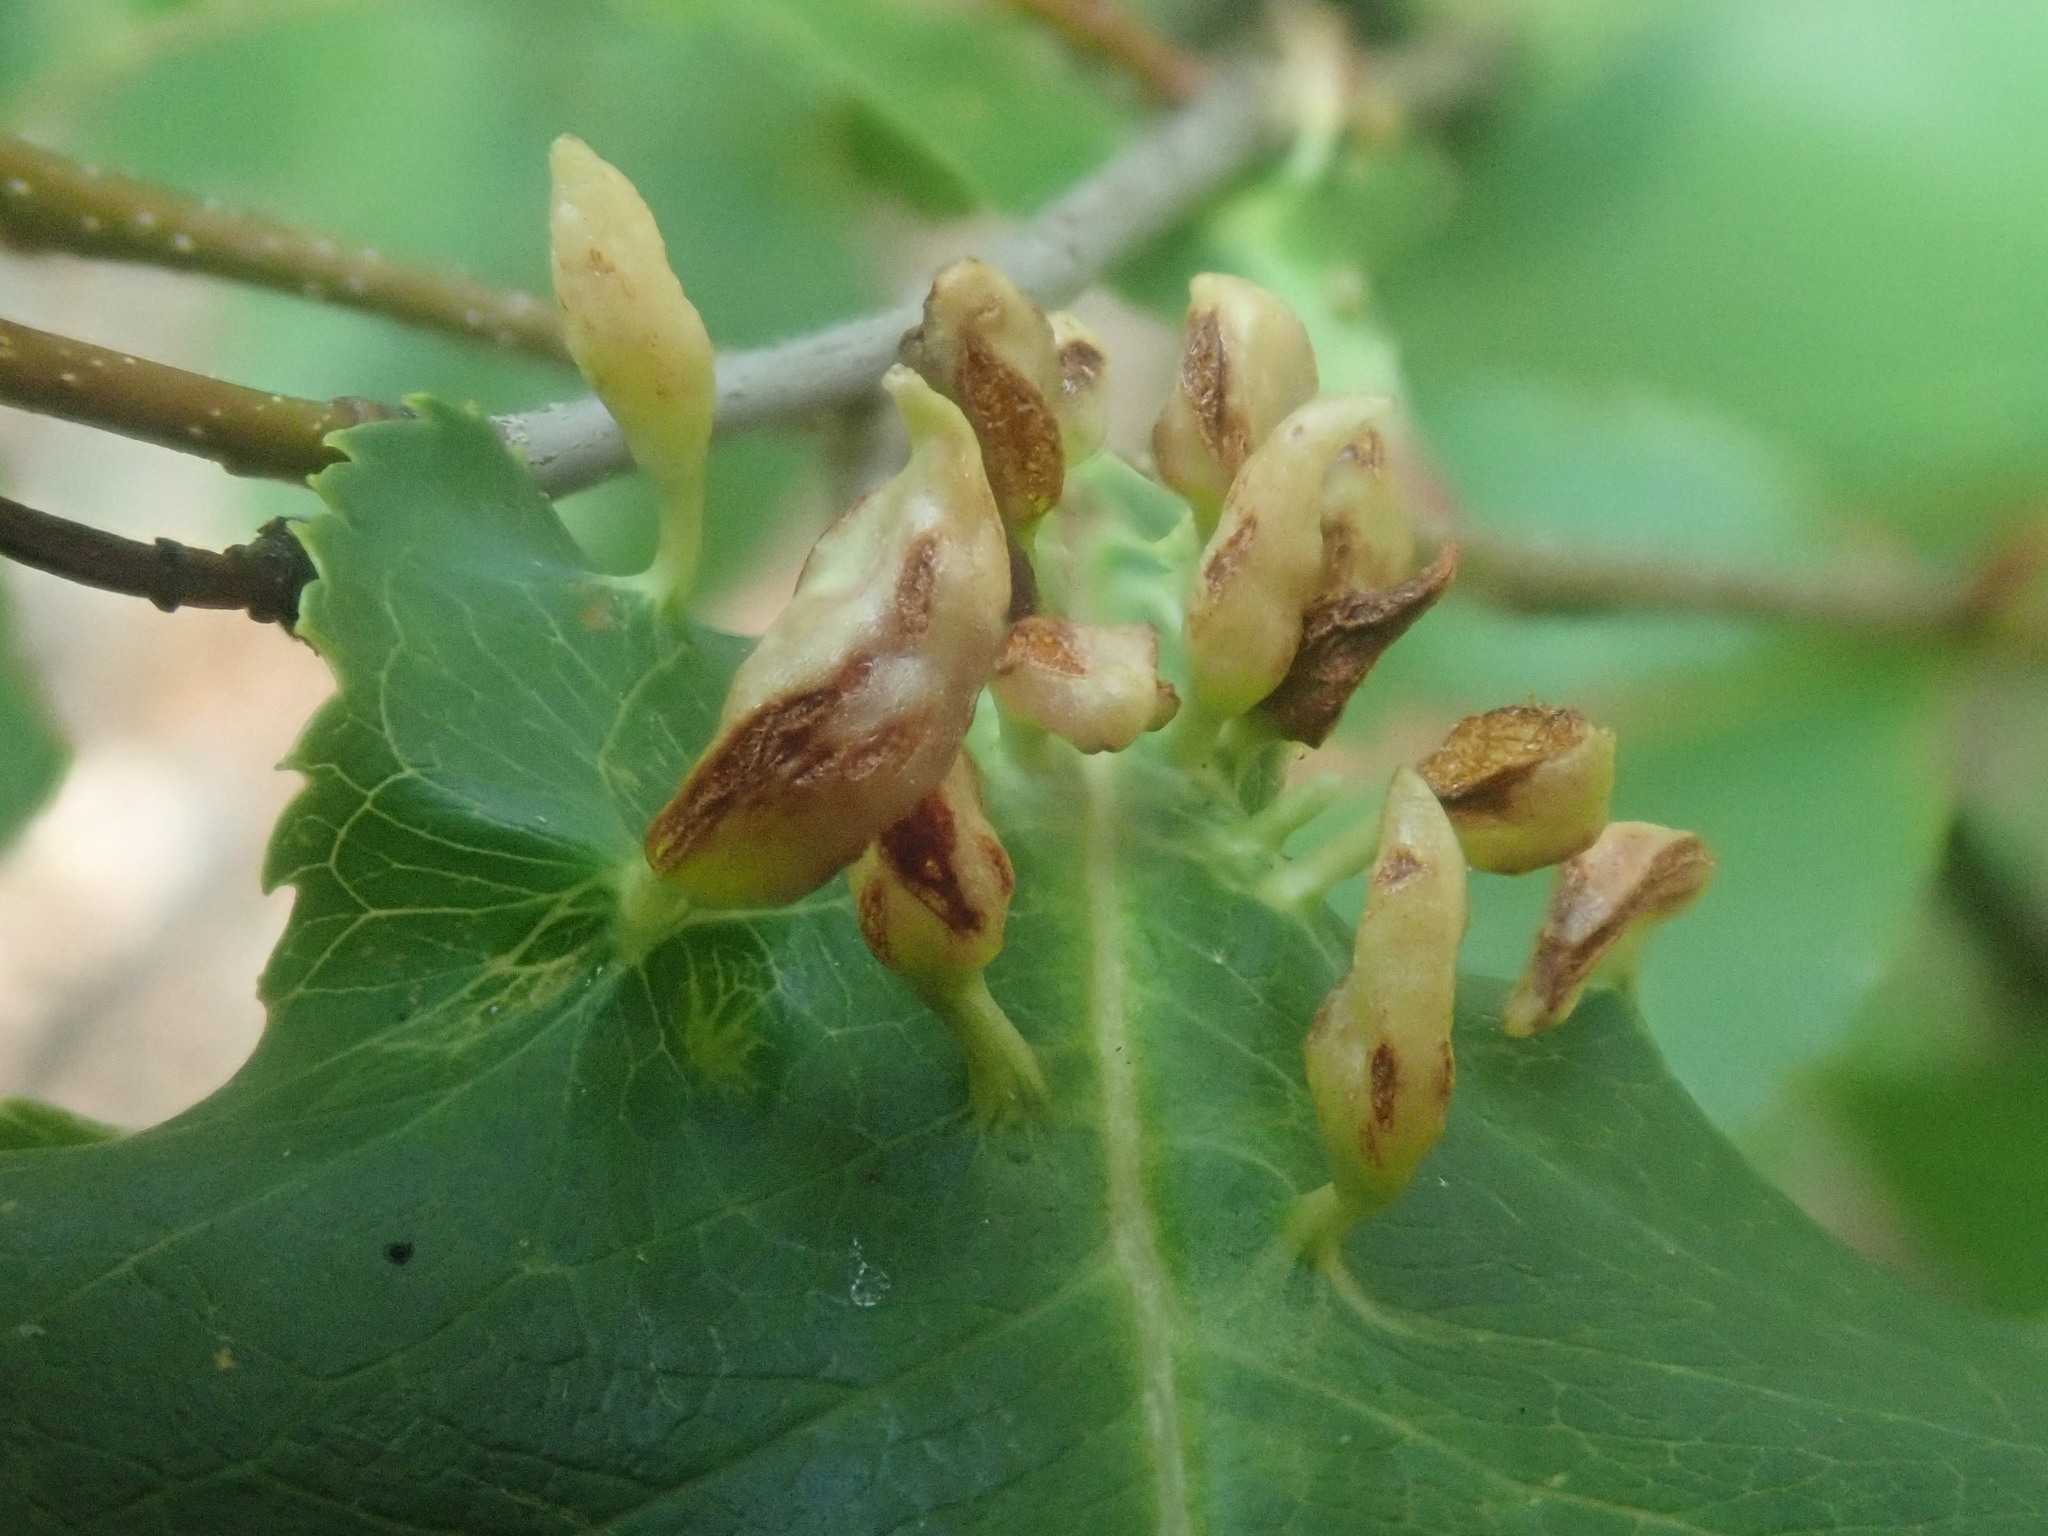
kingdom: Animalia
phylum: Arthropoda
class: Arachnida
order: Trombidiformes
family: Eriophyidae
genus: Eriophyes
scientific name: Eriophyes
